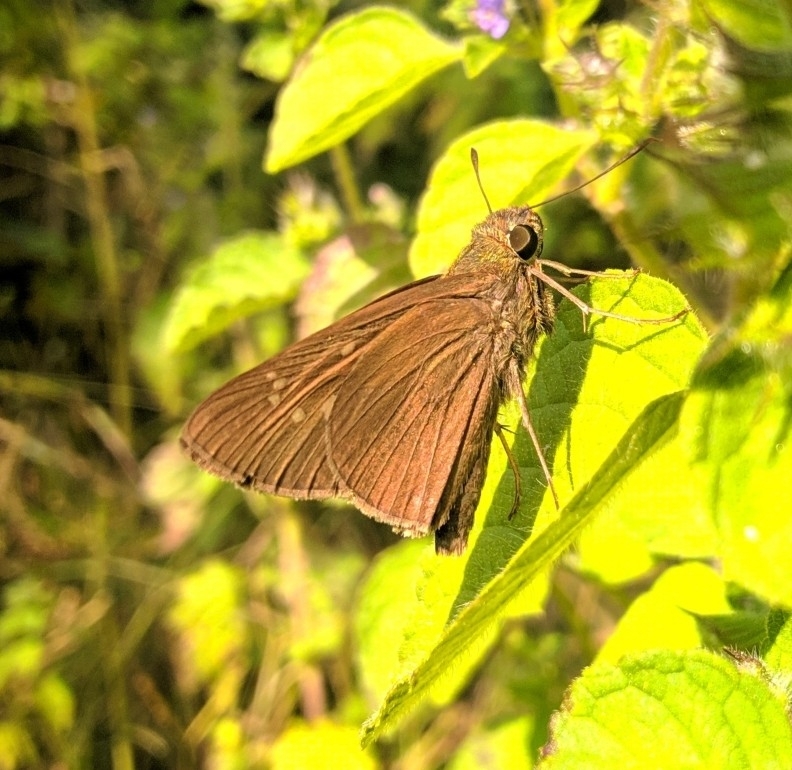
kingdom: Animalia
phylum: Arthropoda
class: Insecta
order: Lepidoptera
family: Hesperiidae
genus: Baoris
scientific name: Baoris farri
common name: Paintbrush swift
